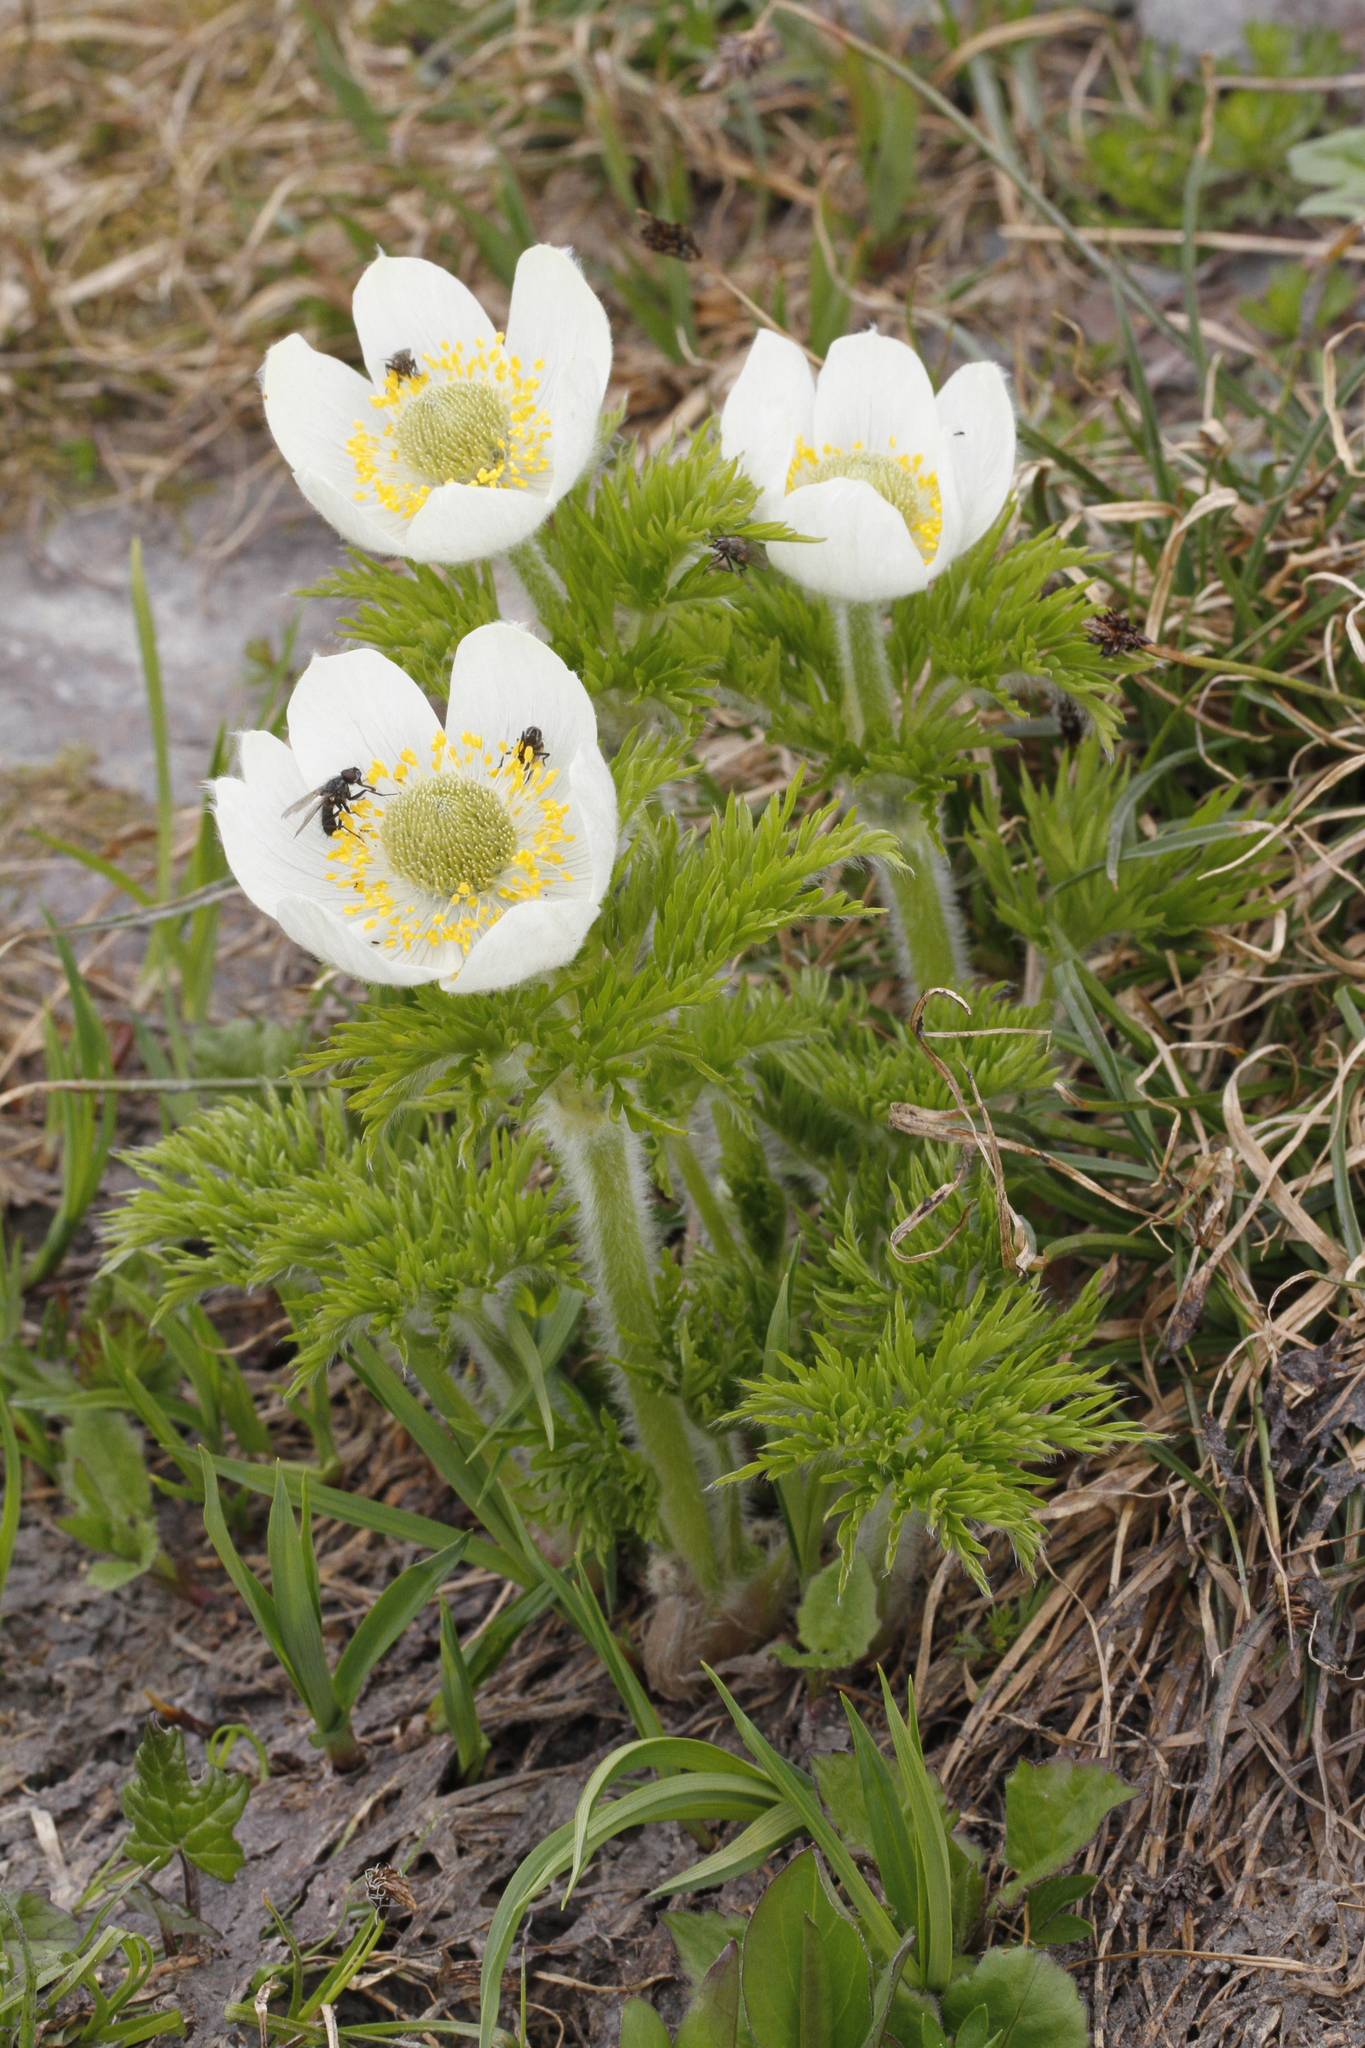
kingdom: Plantae
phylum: Tracheophyta
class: Magnoliopsida
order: Ranunculales
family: Ranunculaceae
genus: Pulsatilla
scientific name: Pulsatilla occidentalis
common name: Mountain pasqueflower
